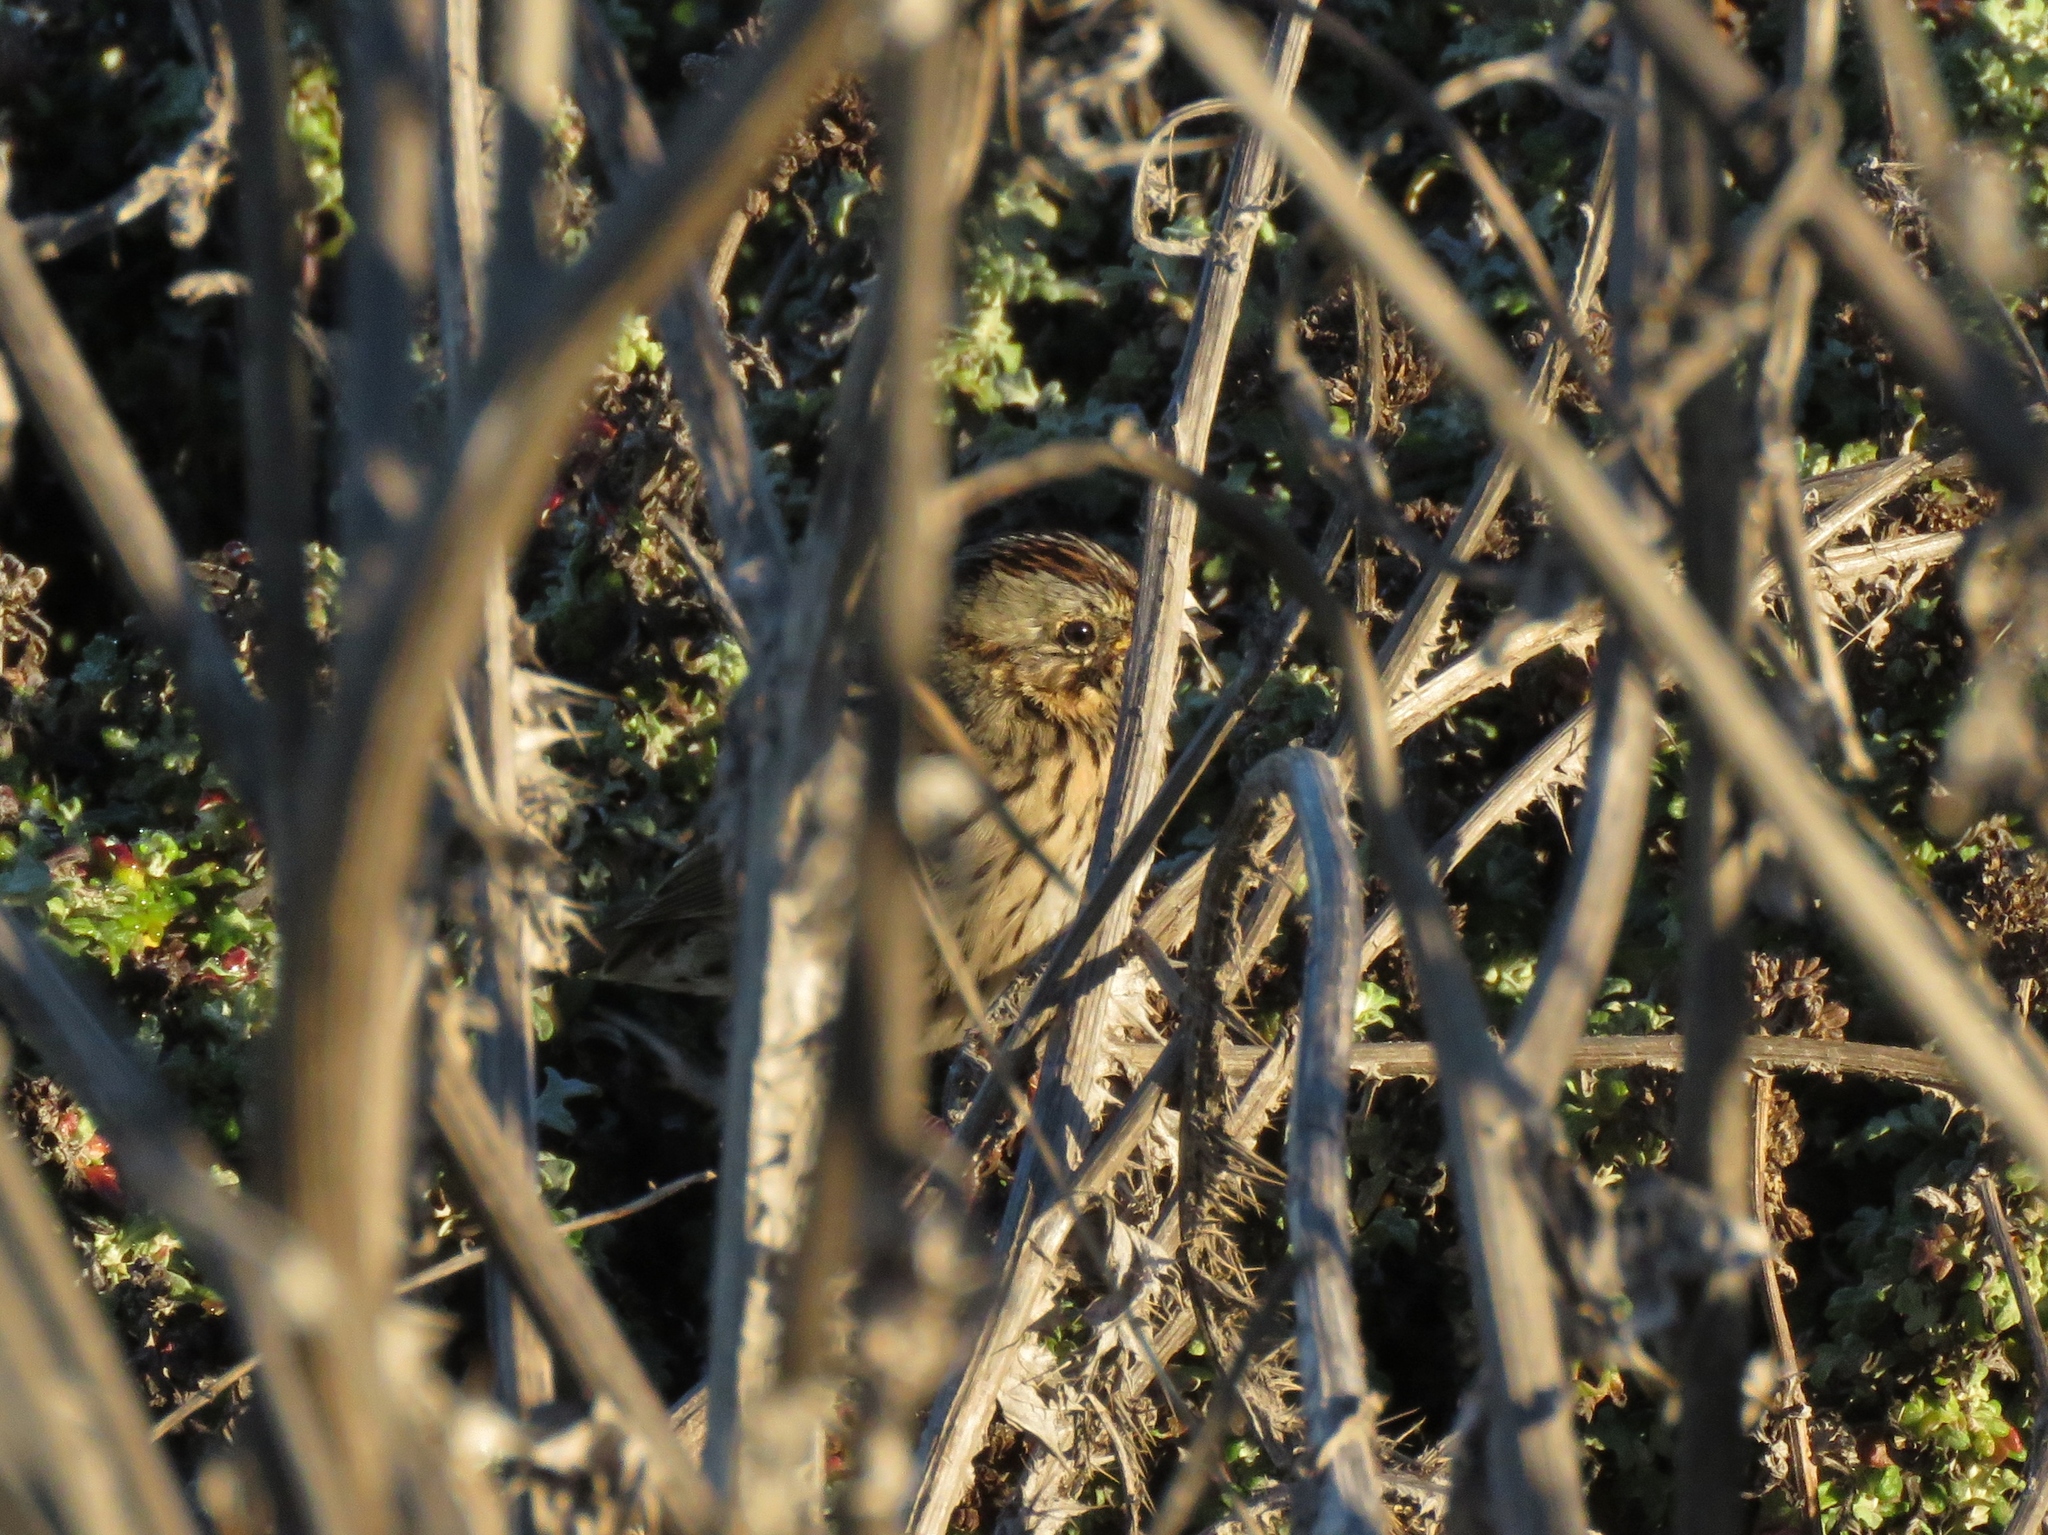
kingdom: Animalia
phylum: Chordata
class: Aves
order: Passeriformes
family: Passerellidae
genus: Melospiza
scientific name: Melospiza lincolnii
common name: Lincoln's sparrow
